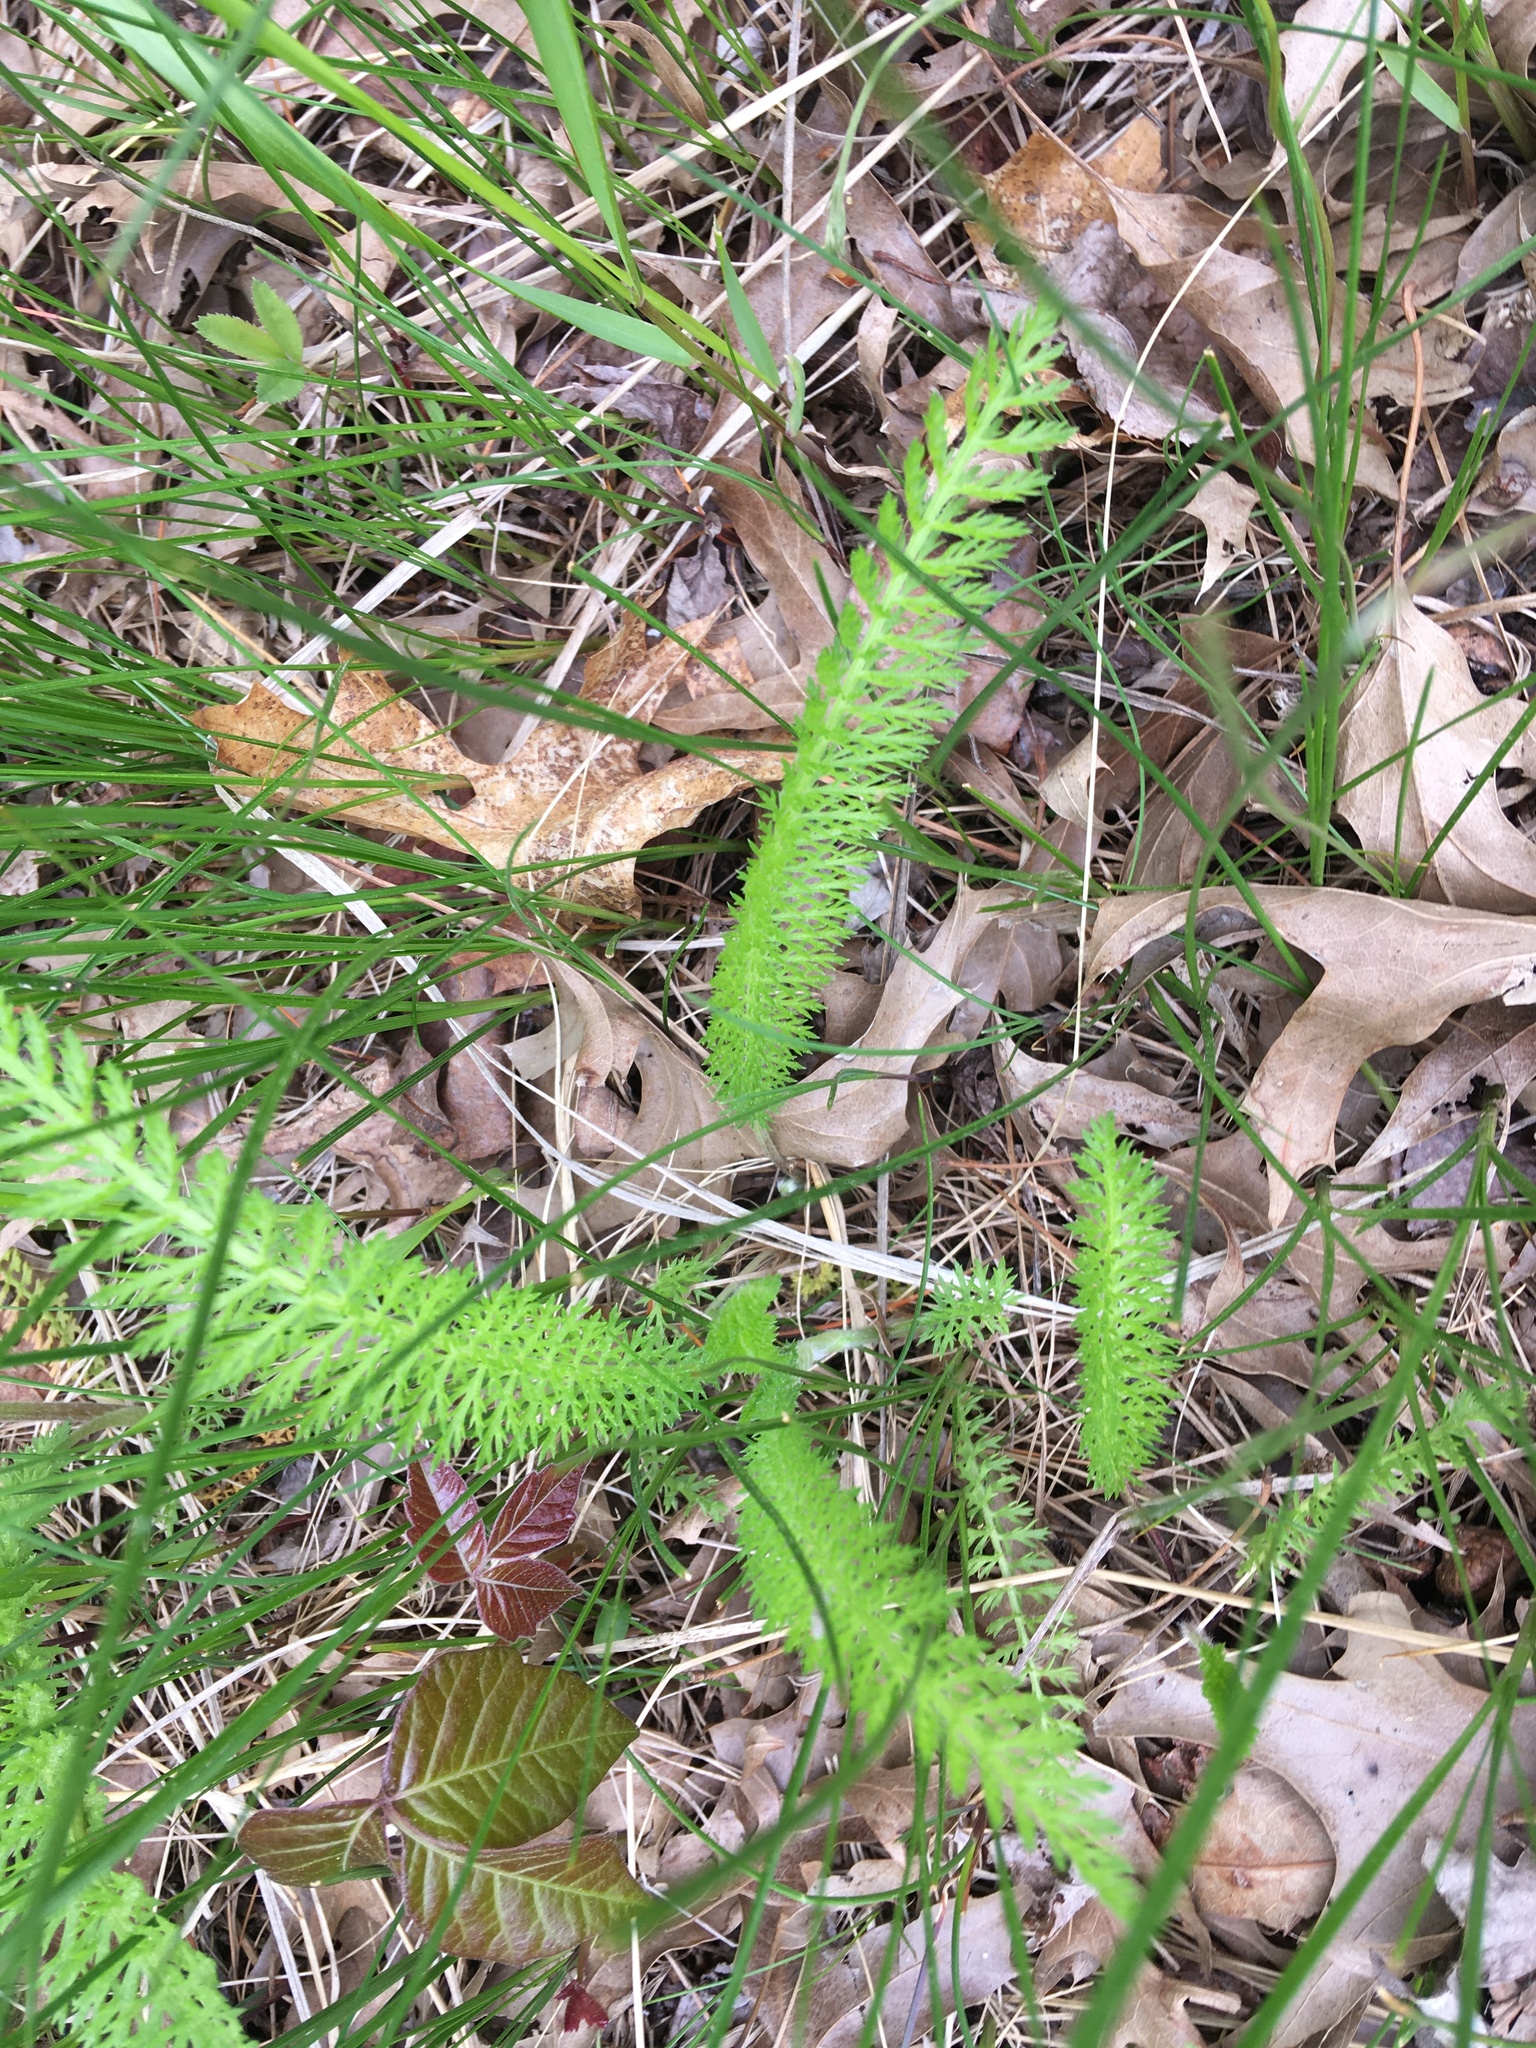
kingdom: Plantae
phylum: Tracheophyta
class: Magnoliopsida
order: Asterales
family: Asteraceae
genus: Achillea
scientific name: Achillea millefolium
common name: Yarrow
